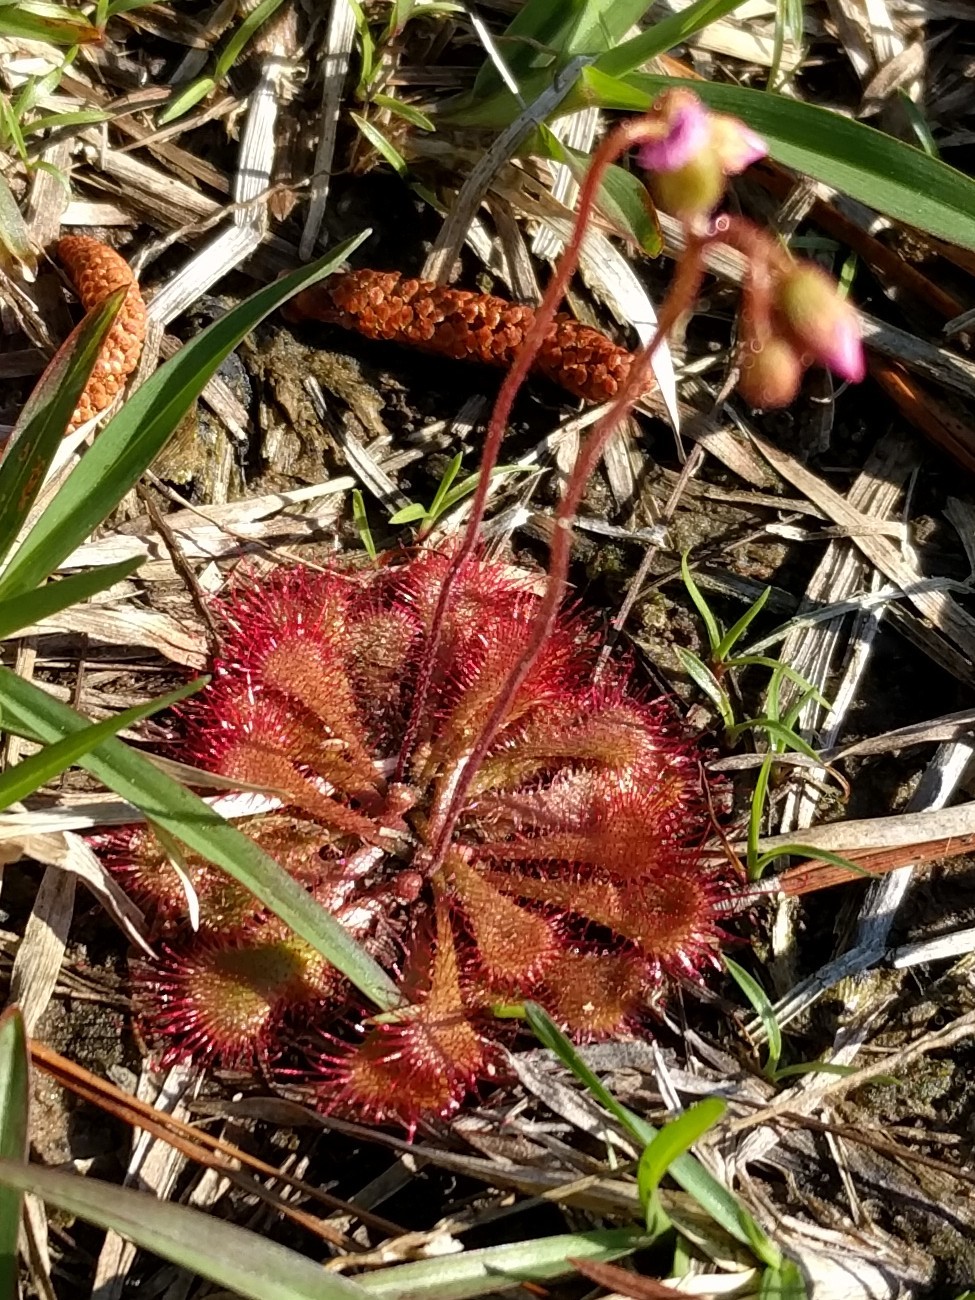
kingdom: Plantae
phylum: Tracheophyta
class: Magnoliopsida
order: Caryophyllales
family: Droseraceae
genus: Drosera
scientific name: Drosera brevifolia
